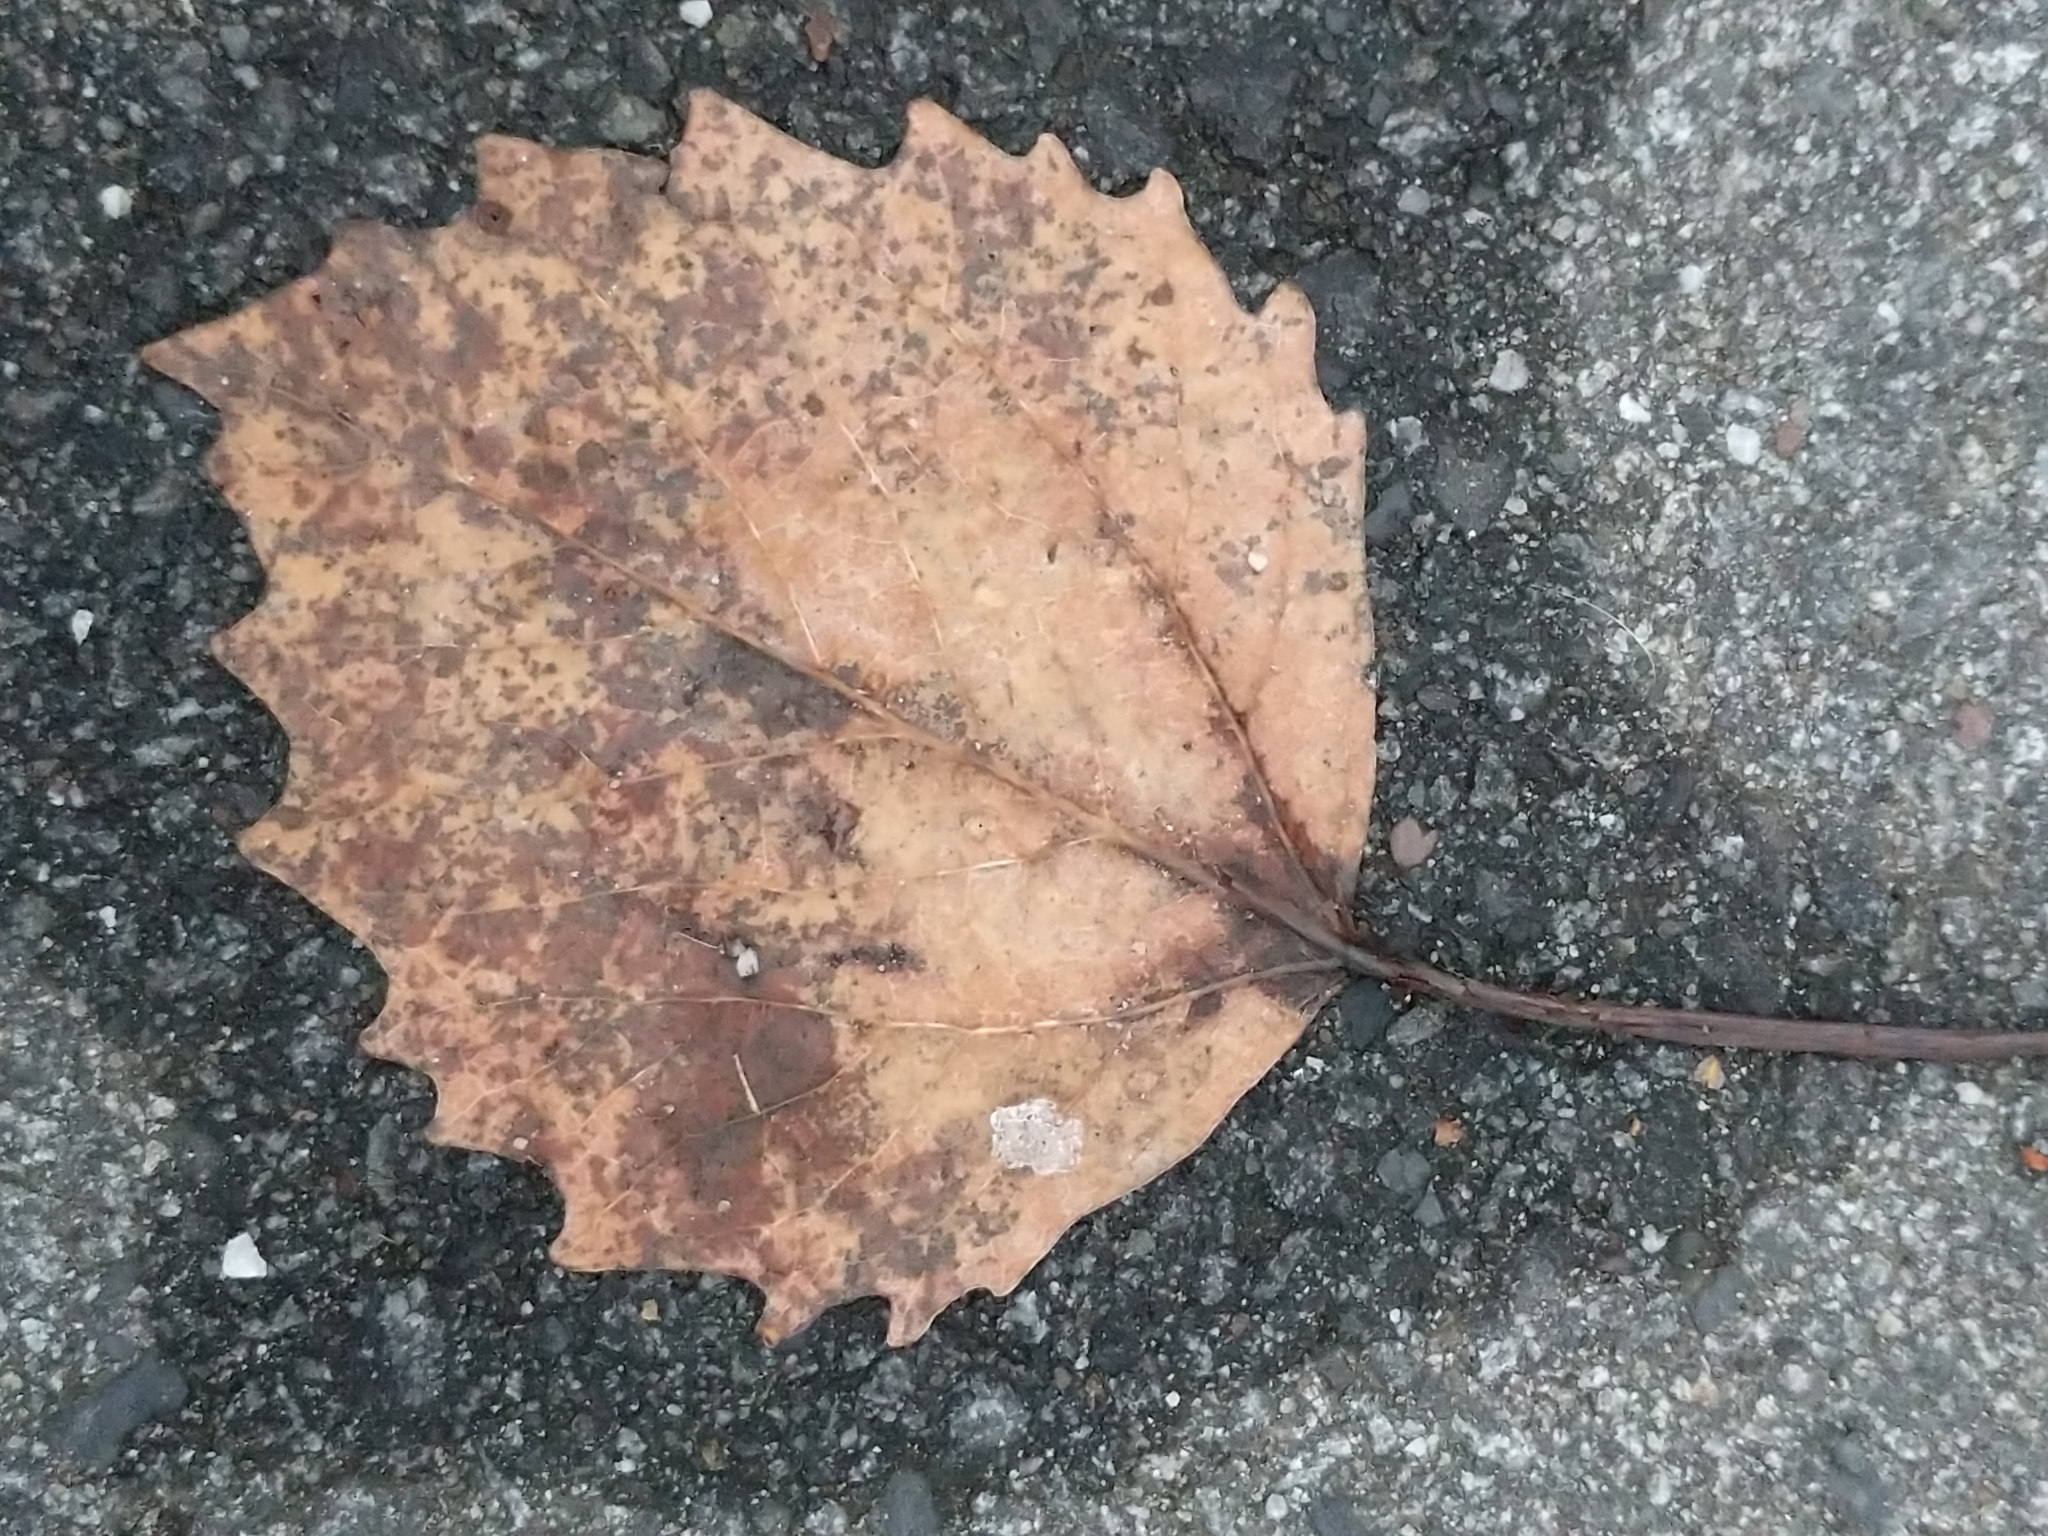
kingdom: Plantae
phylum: Tracheophyta
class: Magnoliopsida
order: Malpighiales
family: Salicaceae
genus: Populus
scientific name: Populus grandidentata
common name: Bigtooth aspen
